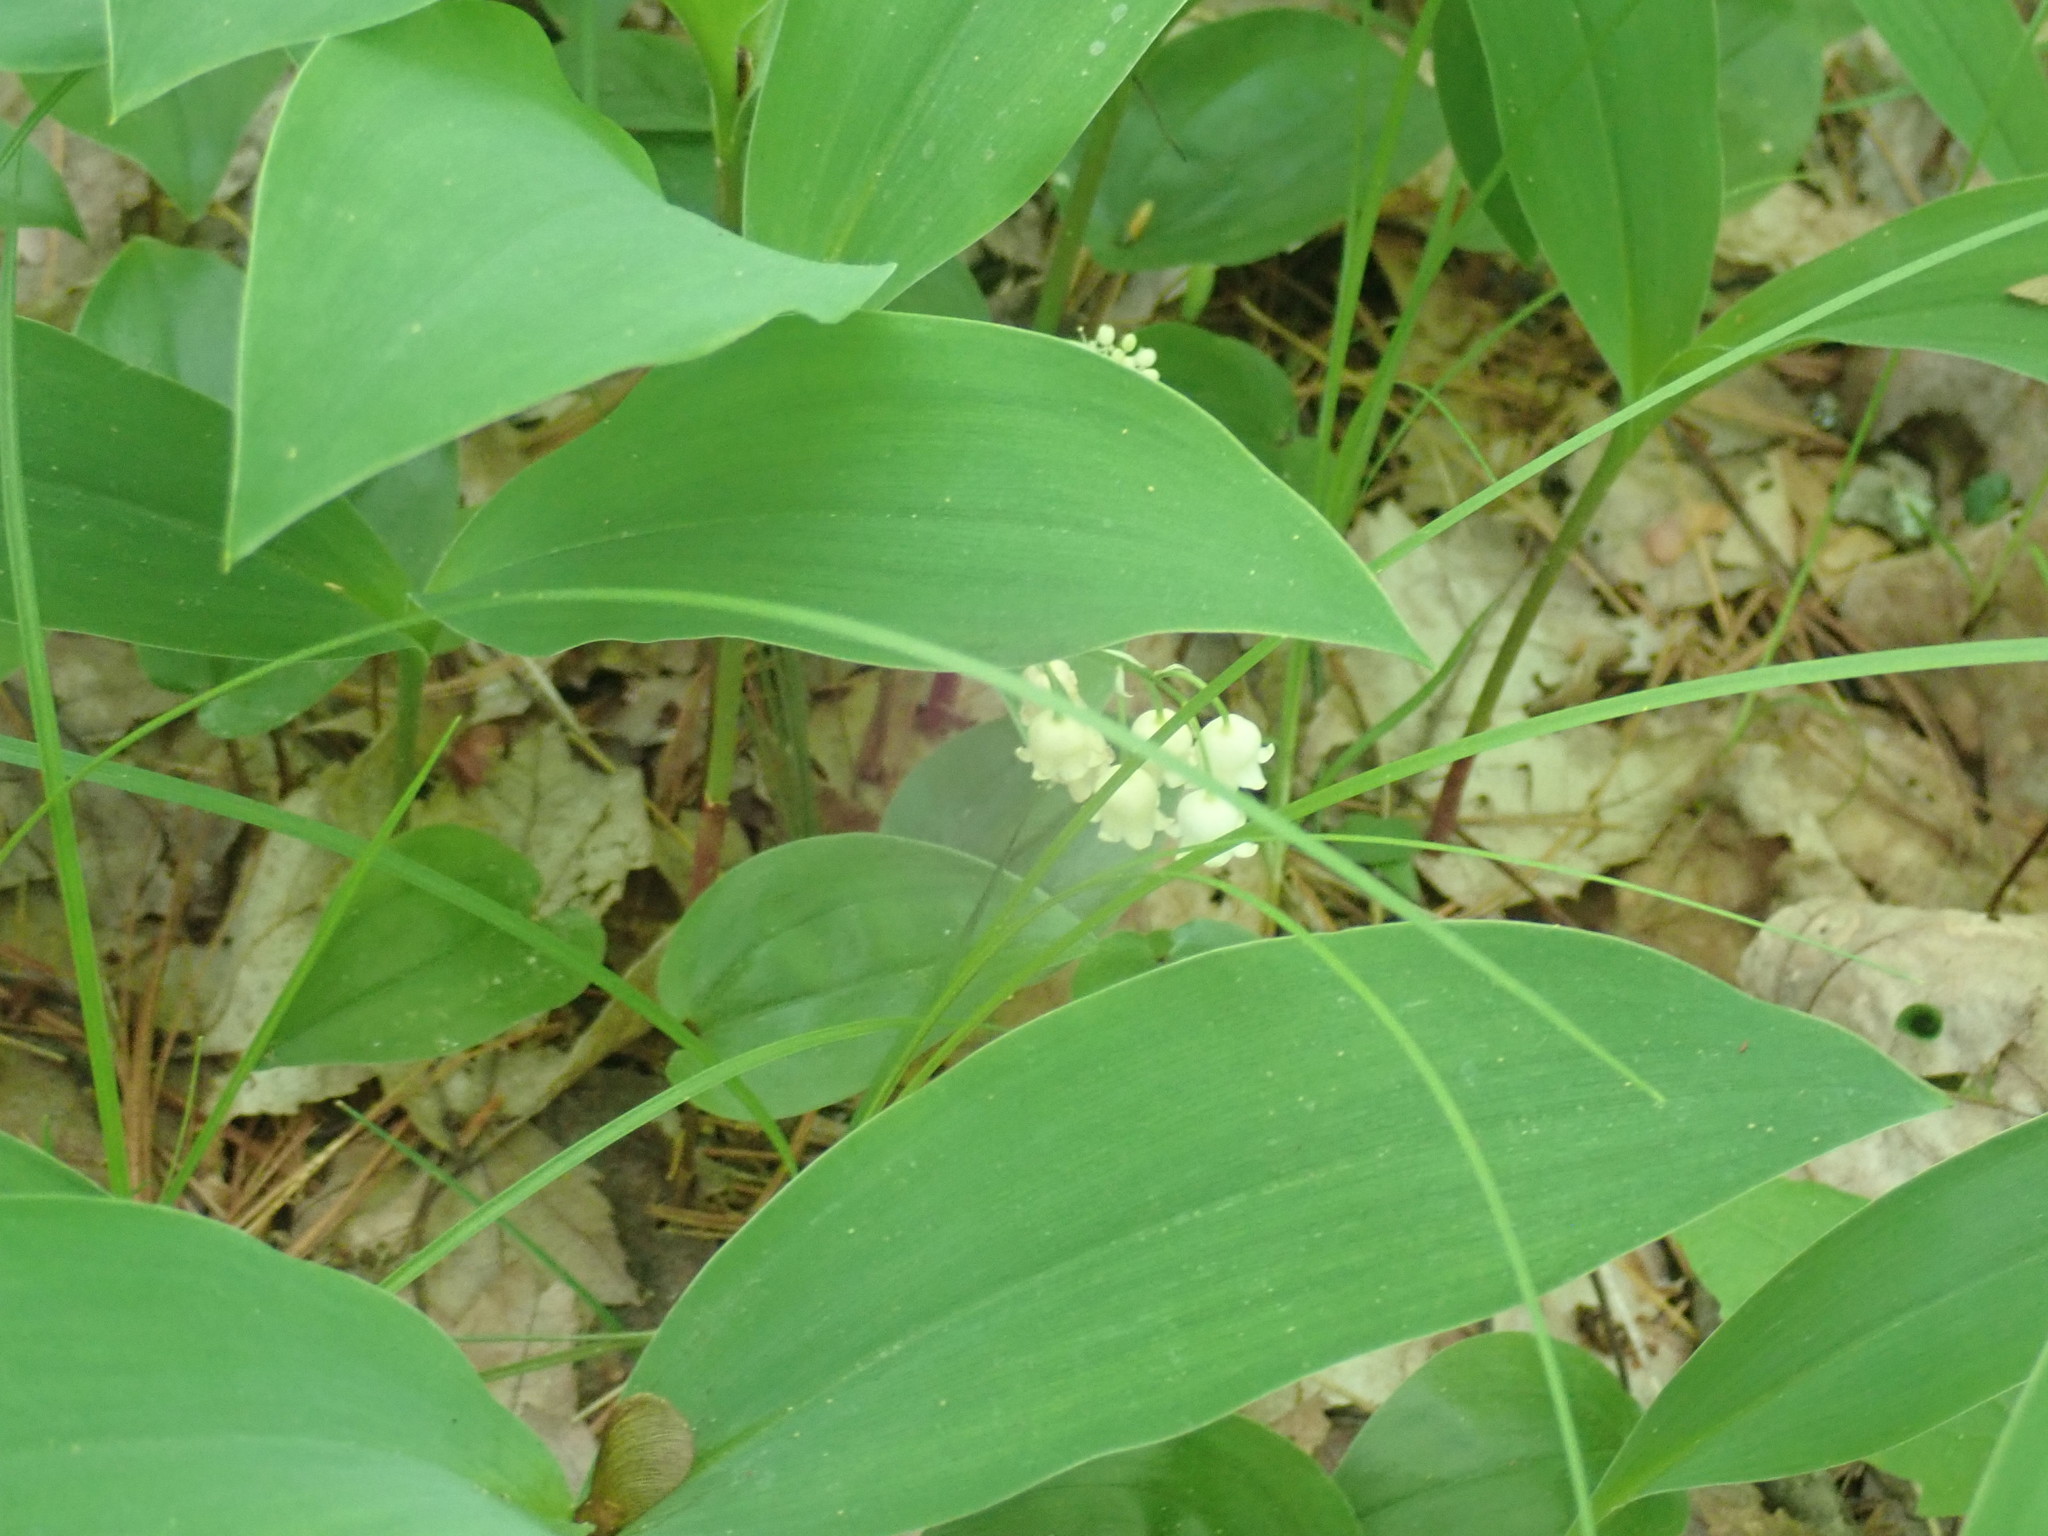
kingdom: Plantae
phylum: Tracheophyta
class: Liliopsida
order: Asparagales
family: Asparagaceae
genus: Convallaria
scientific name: Convallaria majalis
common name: Lily-of-the-valley
